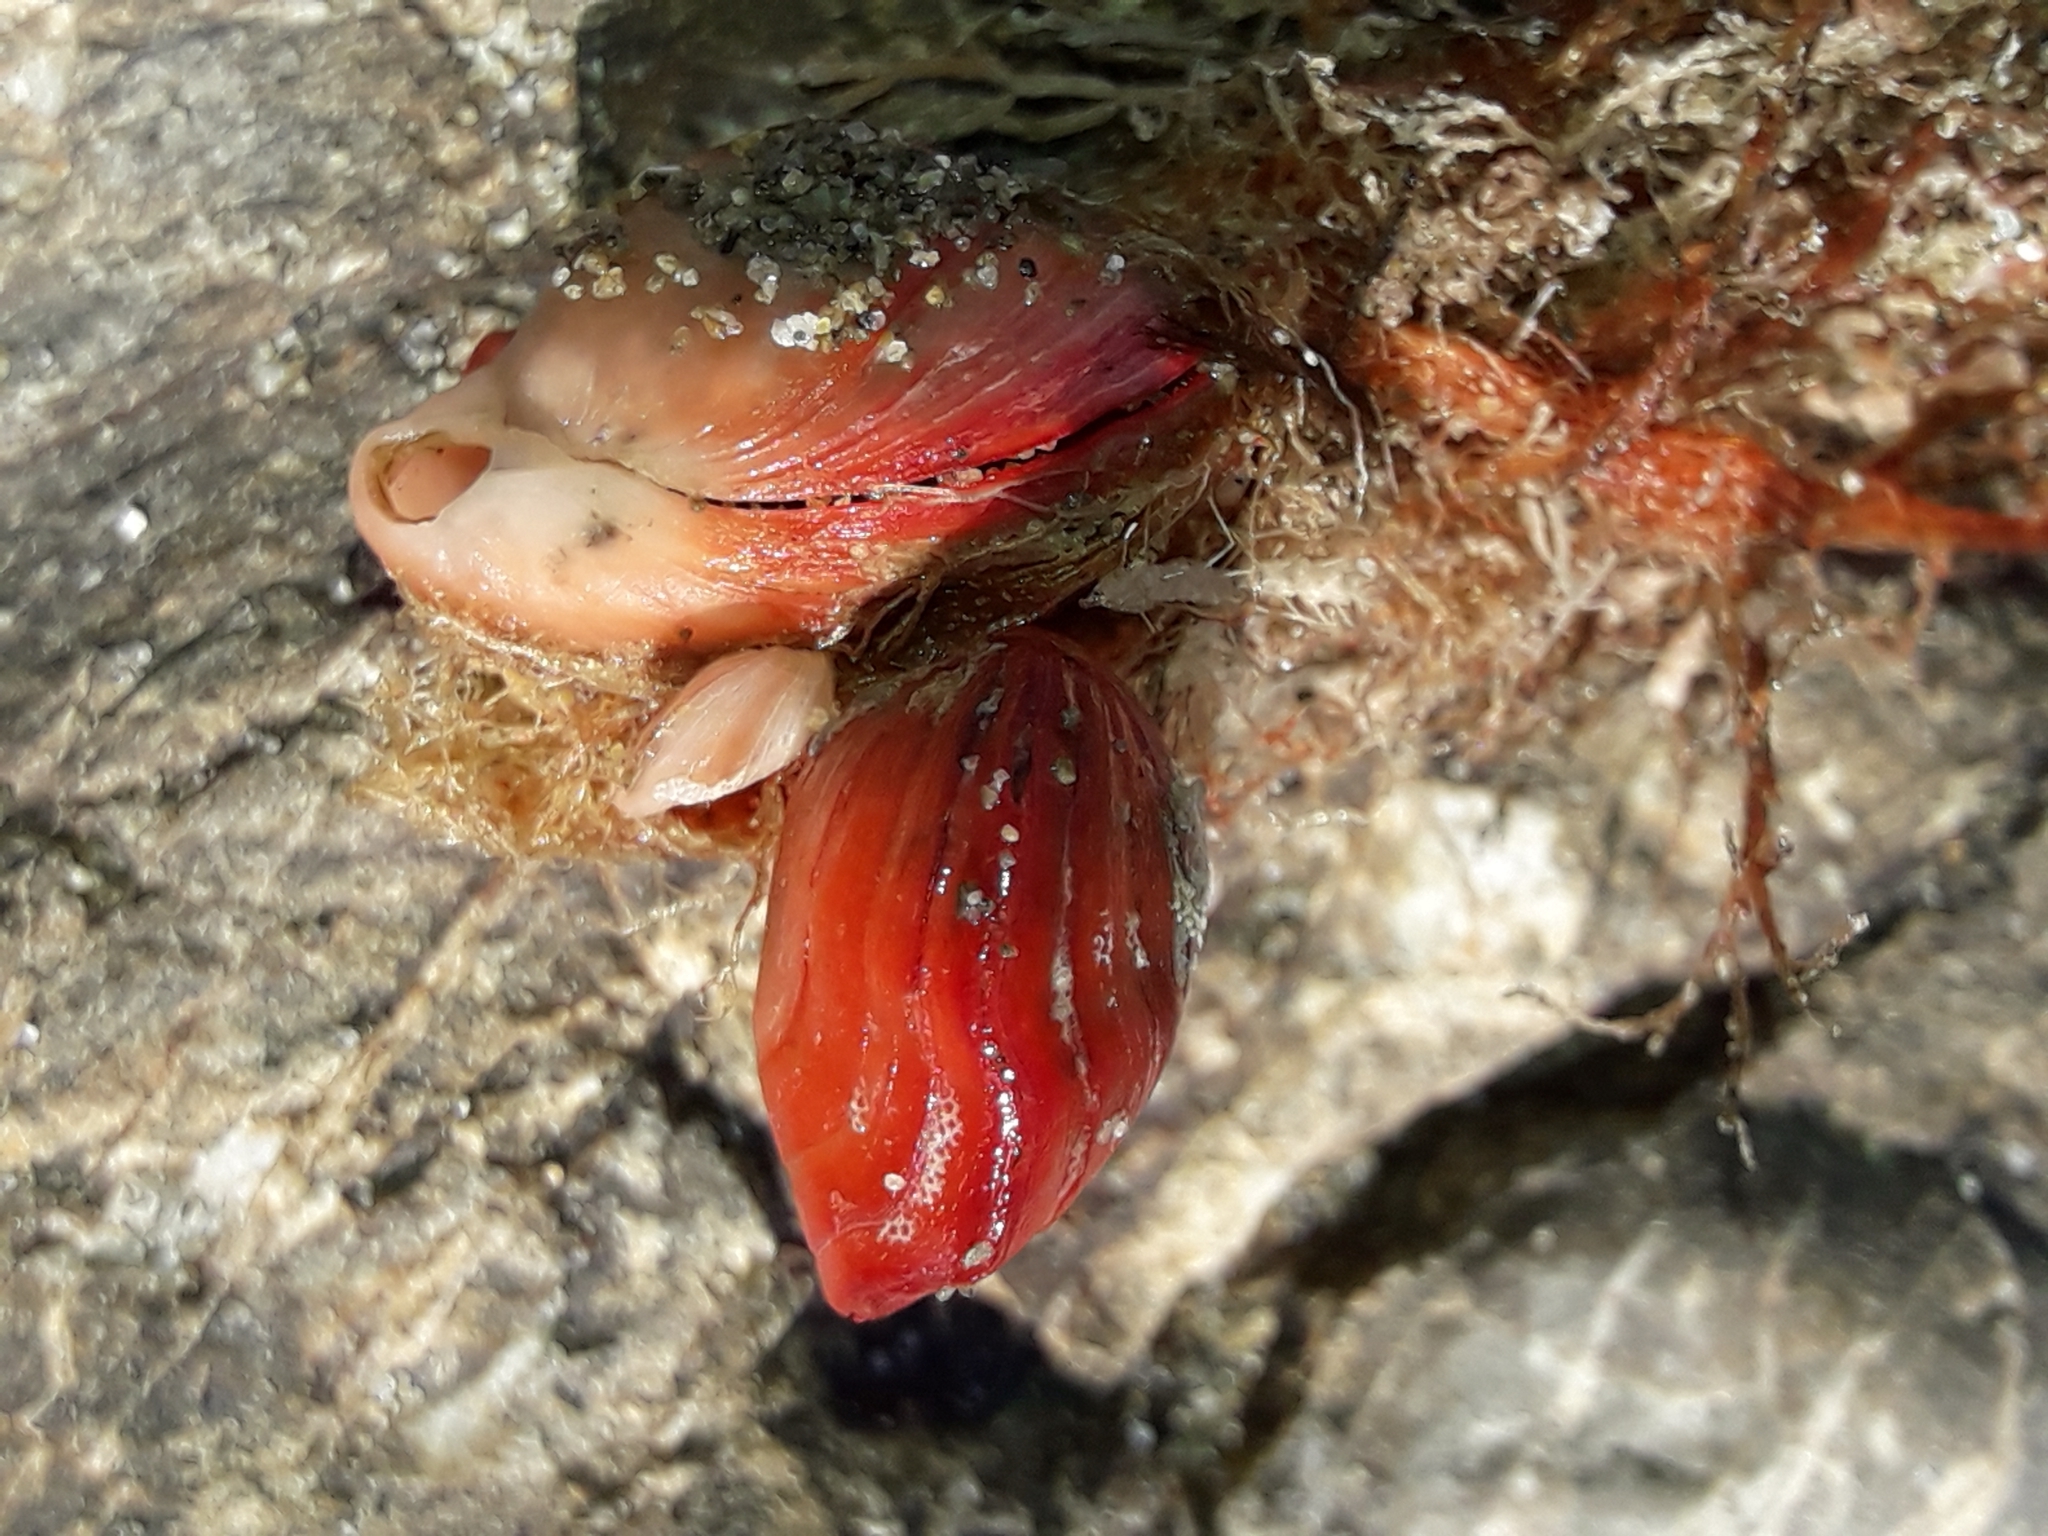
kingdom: Animalia
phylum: Brachiopoda
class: Rhynchonellata
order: Terebratulida
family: Terebratellidae
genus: Calloria
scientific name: Calloria inconspicua
